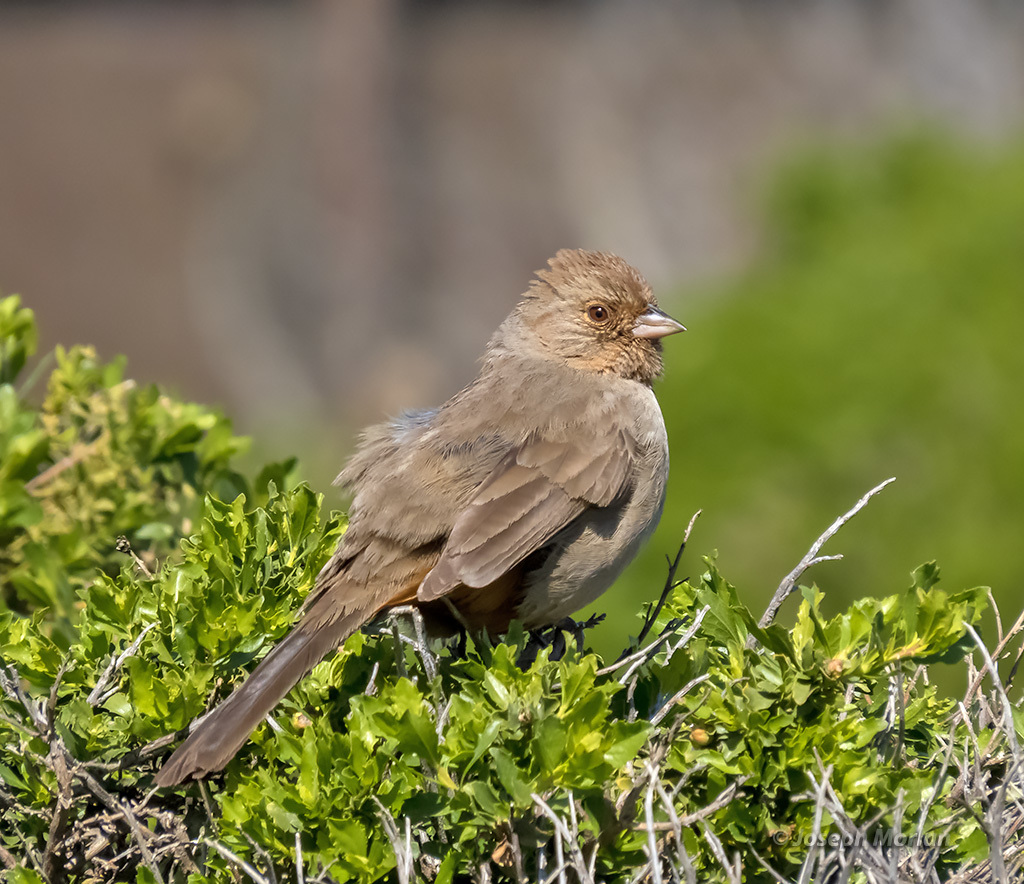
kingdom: Animalia
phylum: Chordata
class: Aves
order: Passeriformes
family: Passerellidae
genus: Melozone
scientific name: Melozone crissalis
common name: California towhee
